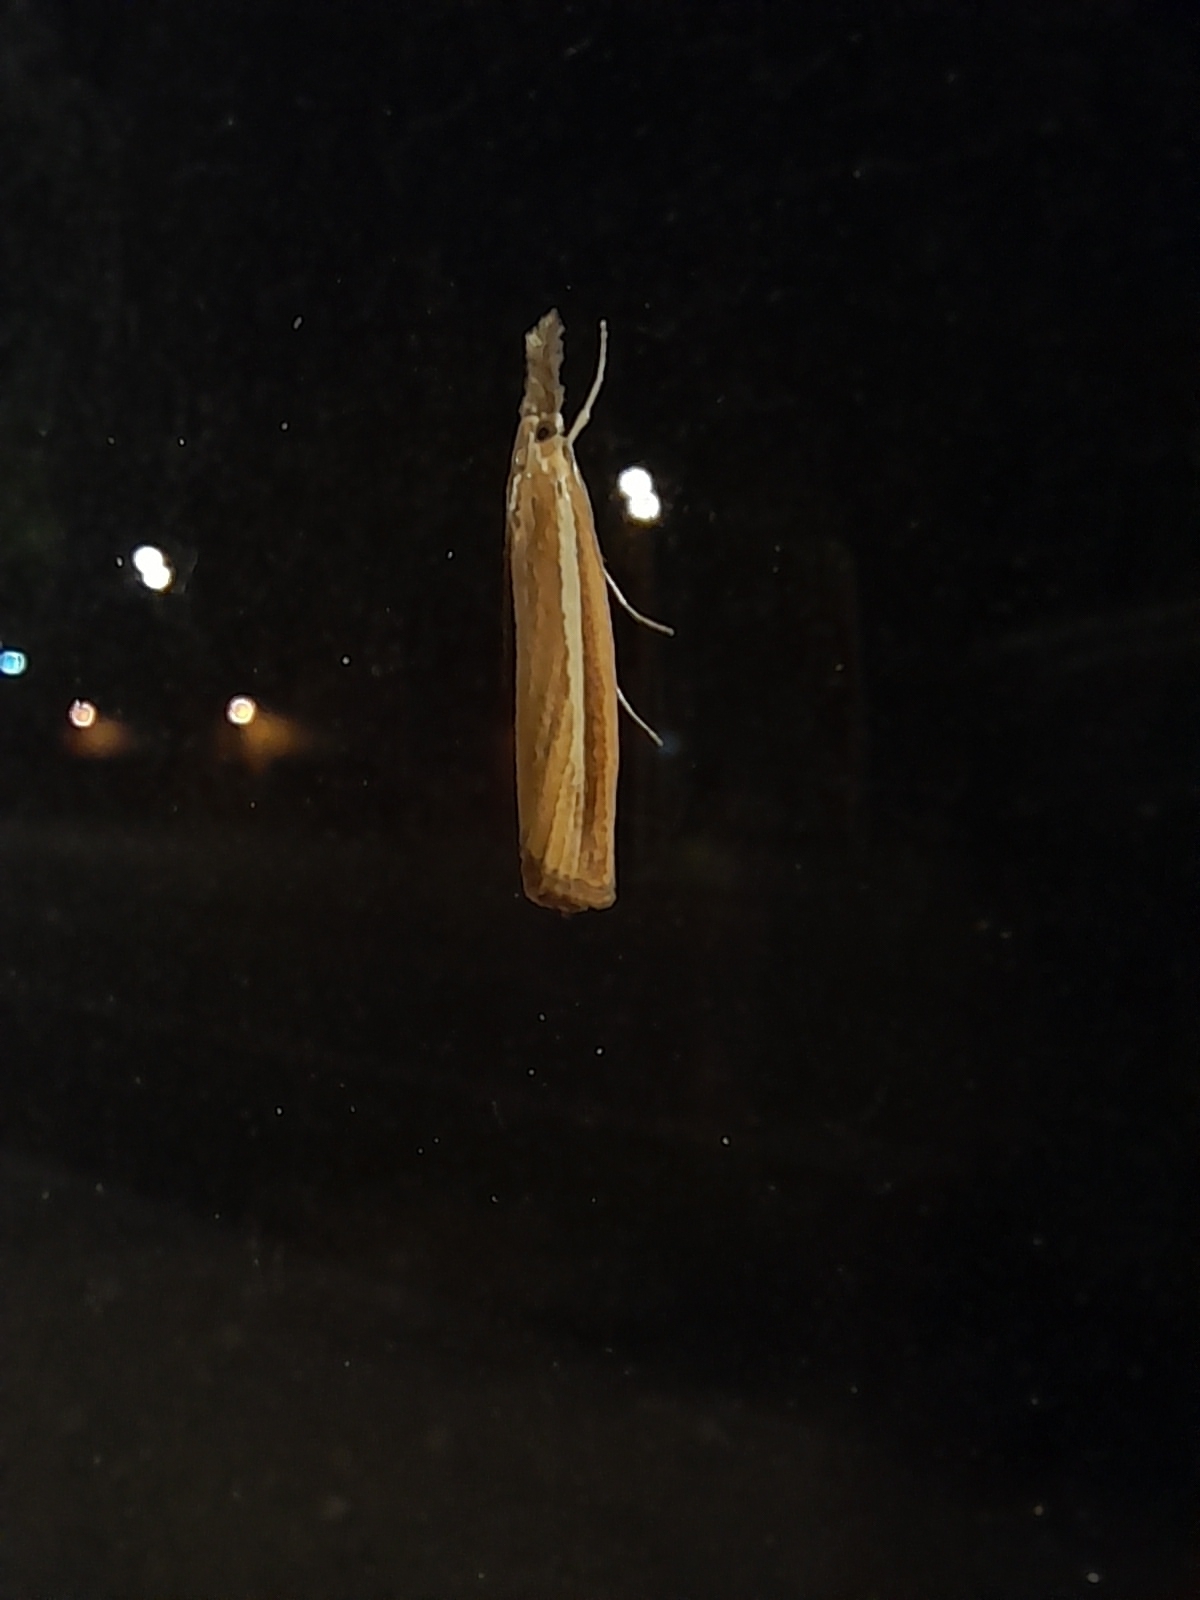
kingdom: Animalia
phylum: Arthropoda
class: Insecta
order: Lepidoptera
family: Crambidae
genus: Agriphila
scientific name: Agriphila selasella
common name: Pale-streak grass-veneer
